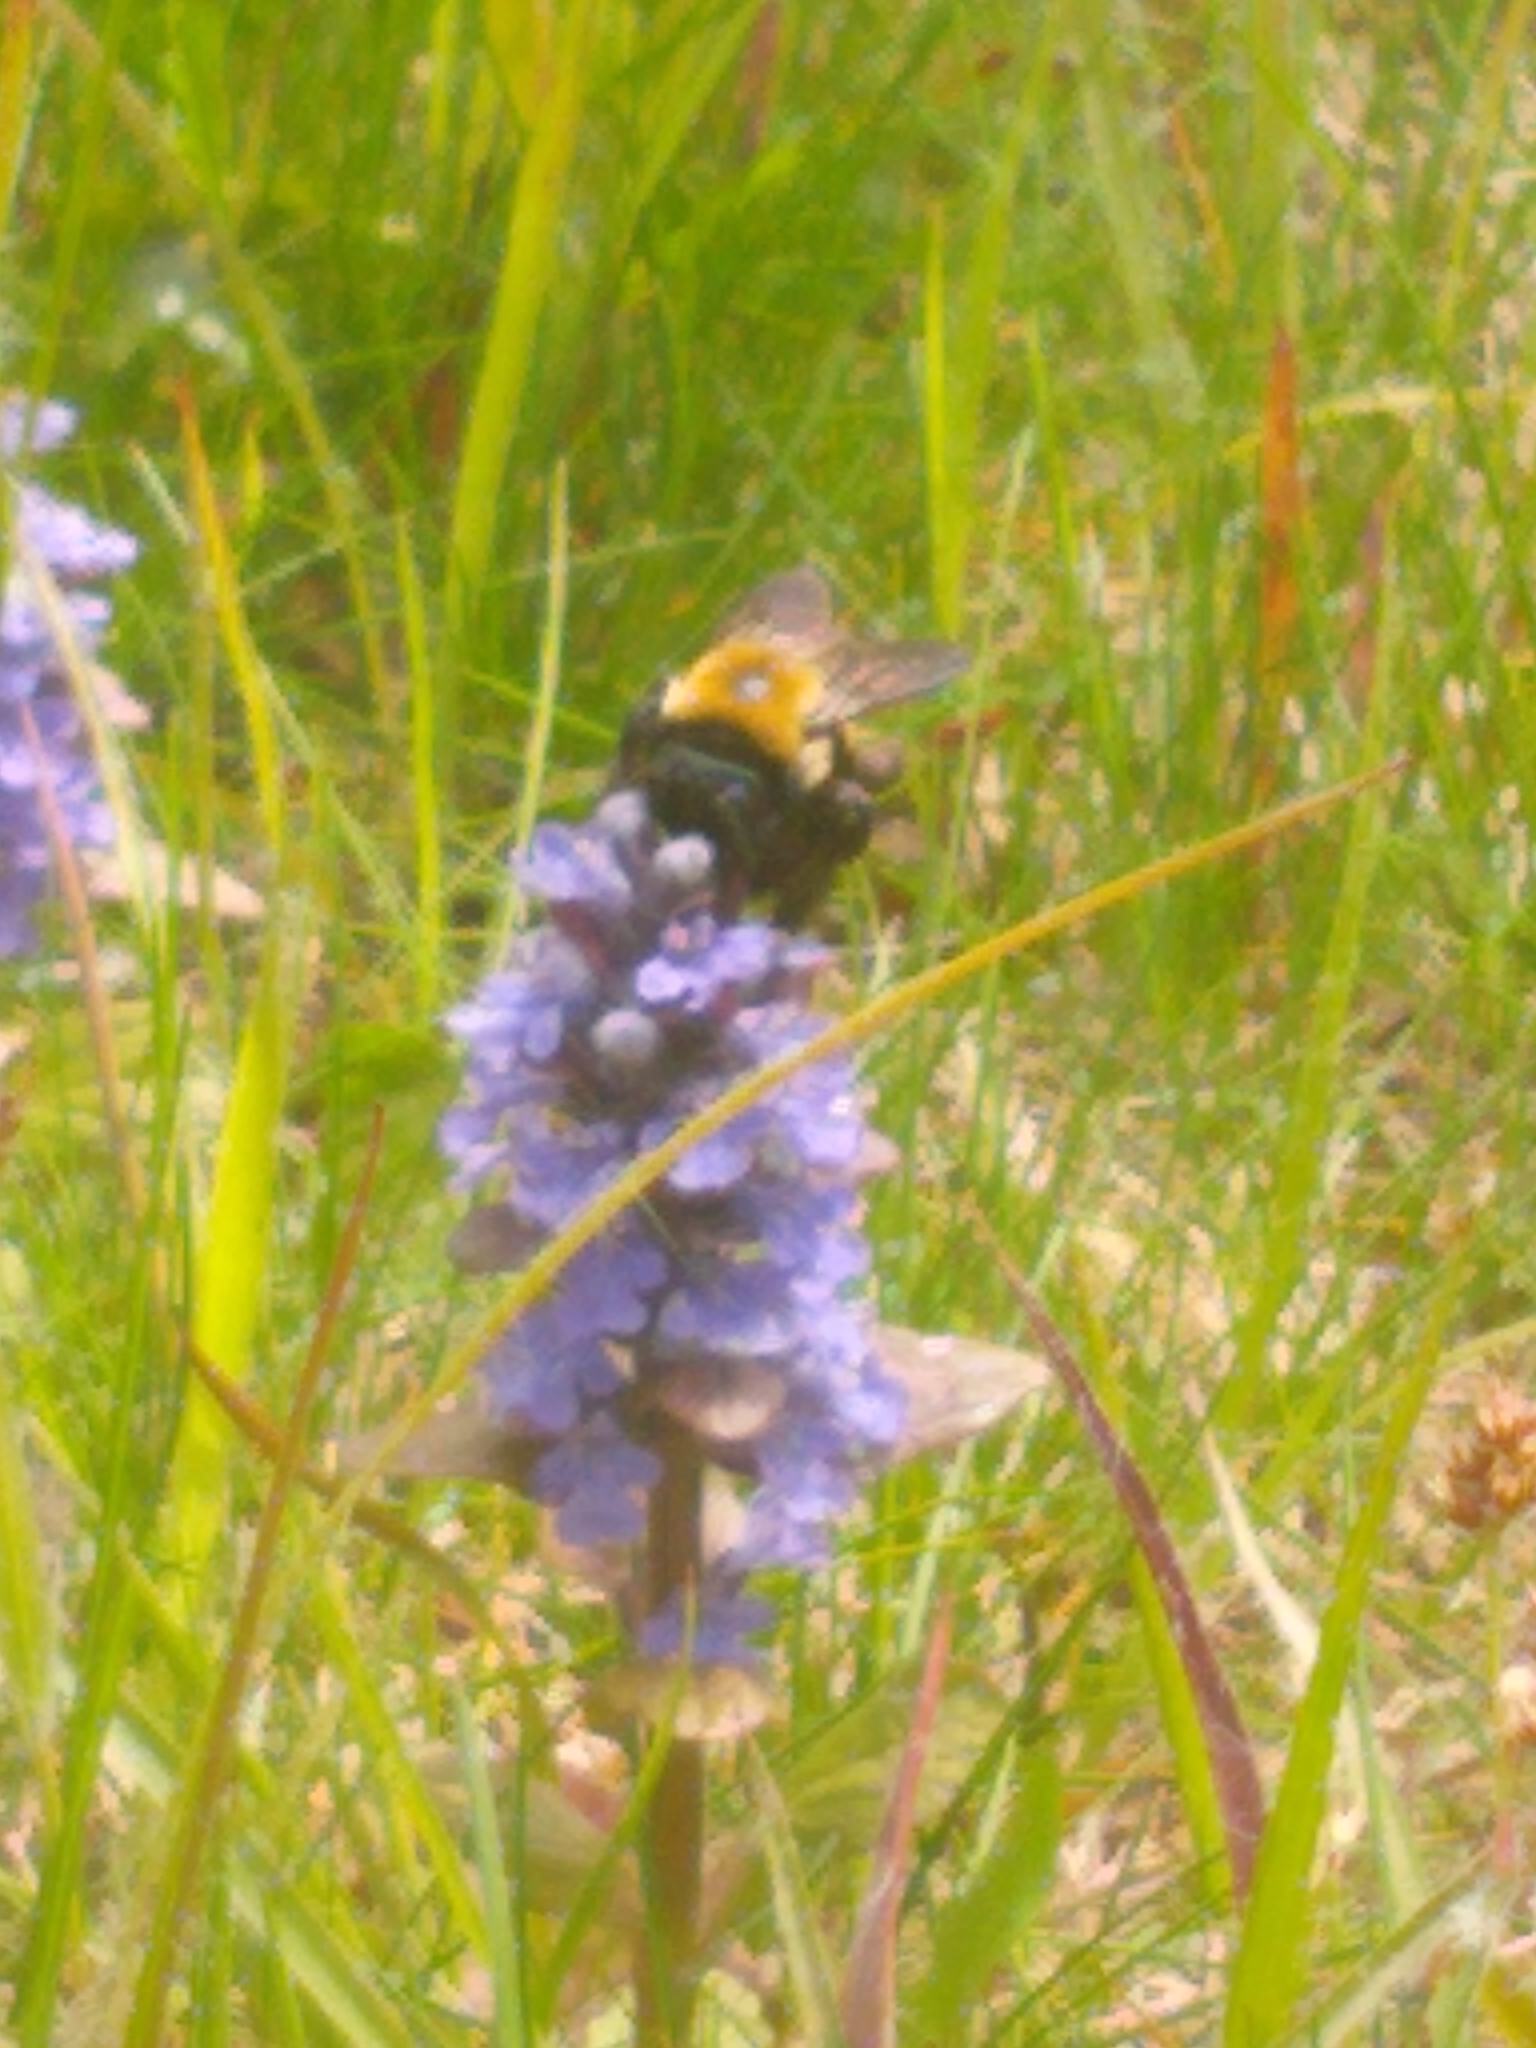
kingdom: Animalia
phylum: Arthropoda
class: Insecta
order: Hymenoptera
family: Apidae
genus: Xylocopa
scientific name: Xylocopa virginica
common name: Carpenter bee
